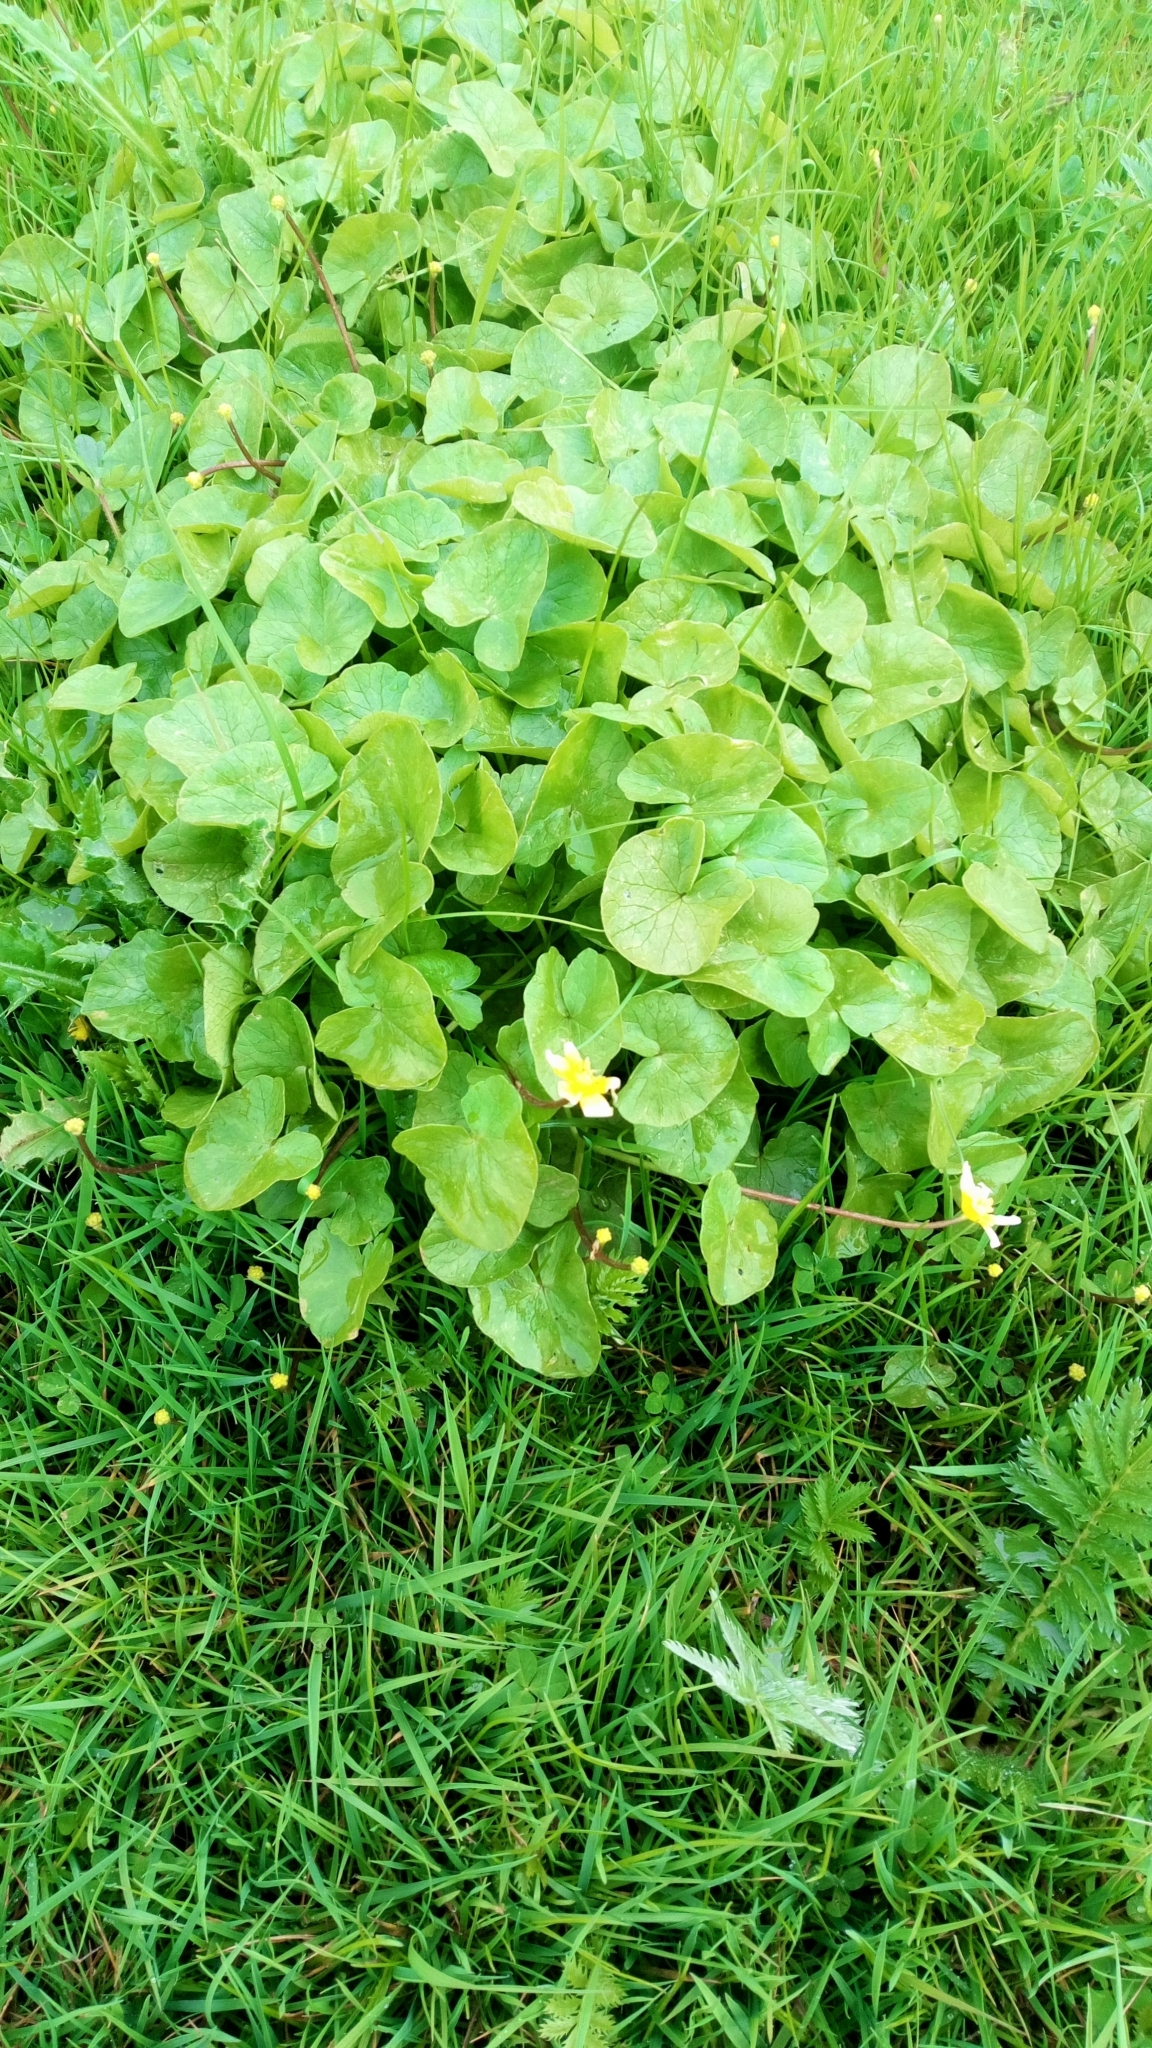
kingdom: Plantae
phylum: Tracheophyta
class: Magnoliopsida
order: Ranunculales
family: Ranunculaceae
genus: Ficaria
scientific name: Ficaria verna
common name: Lesser celandine
